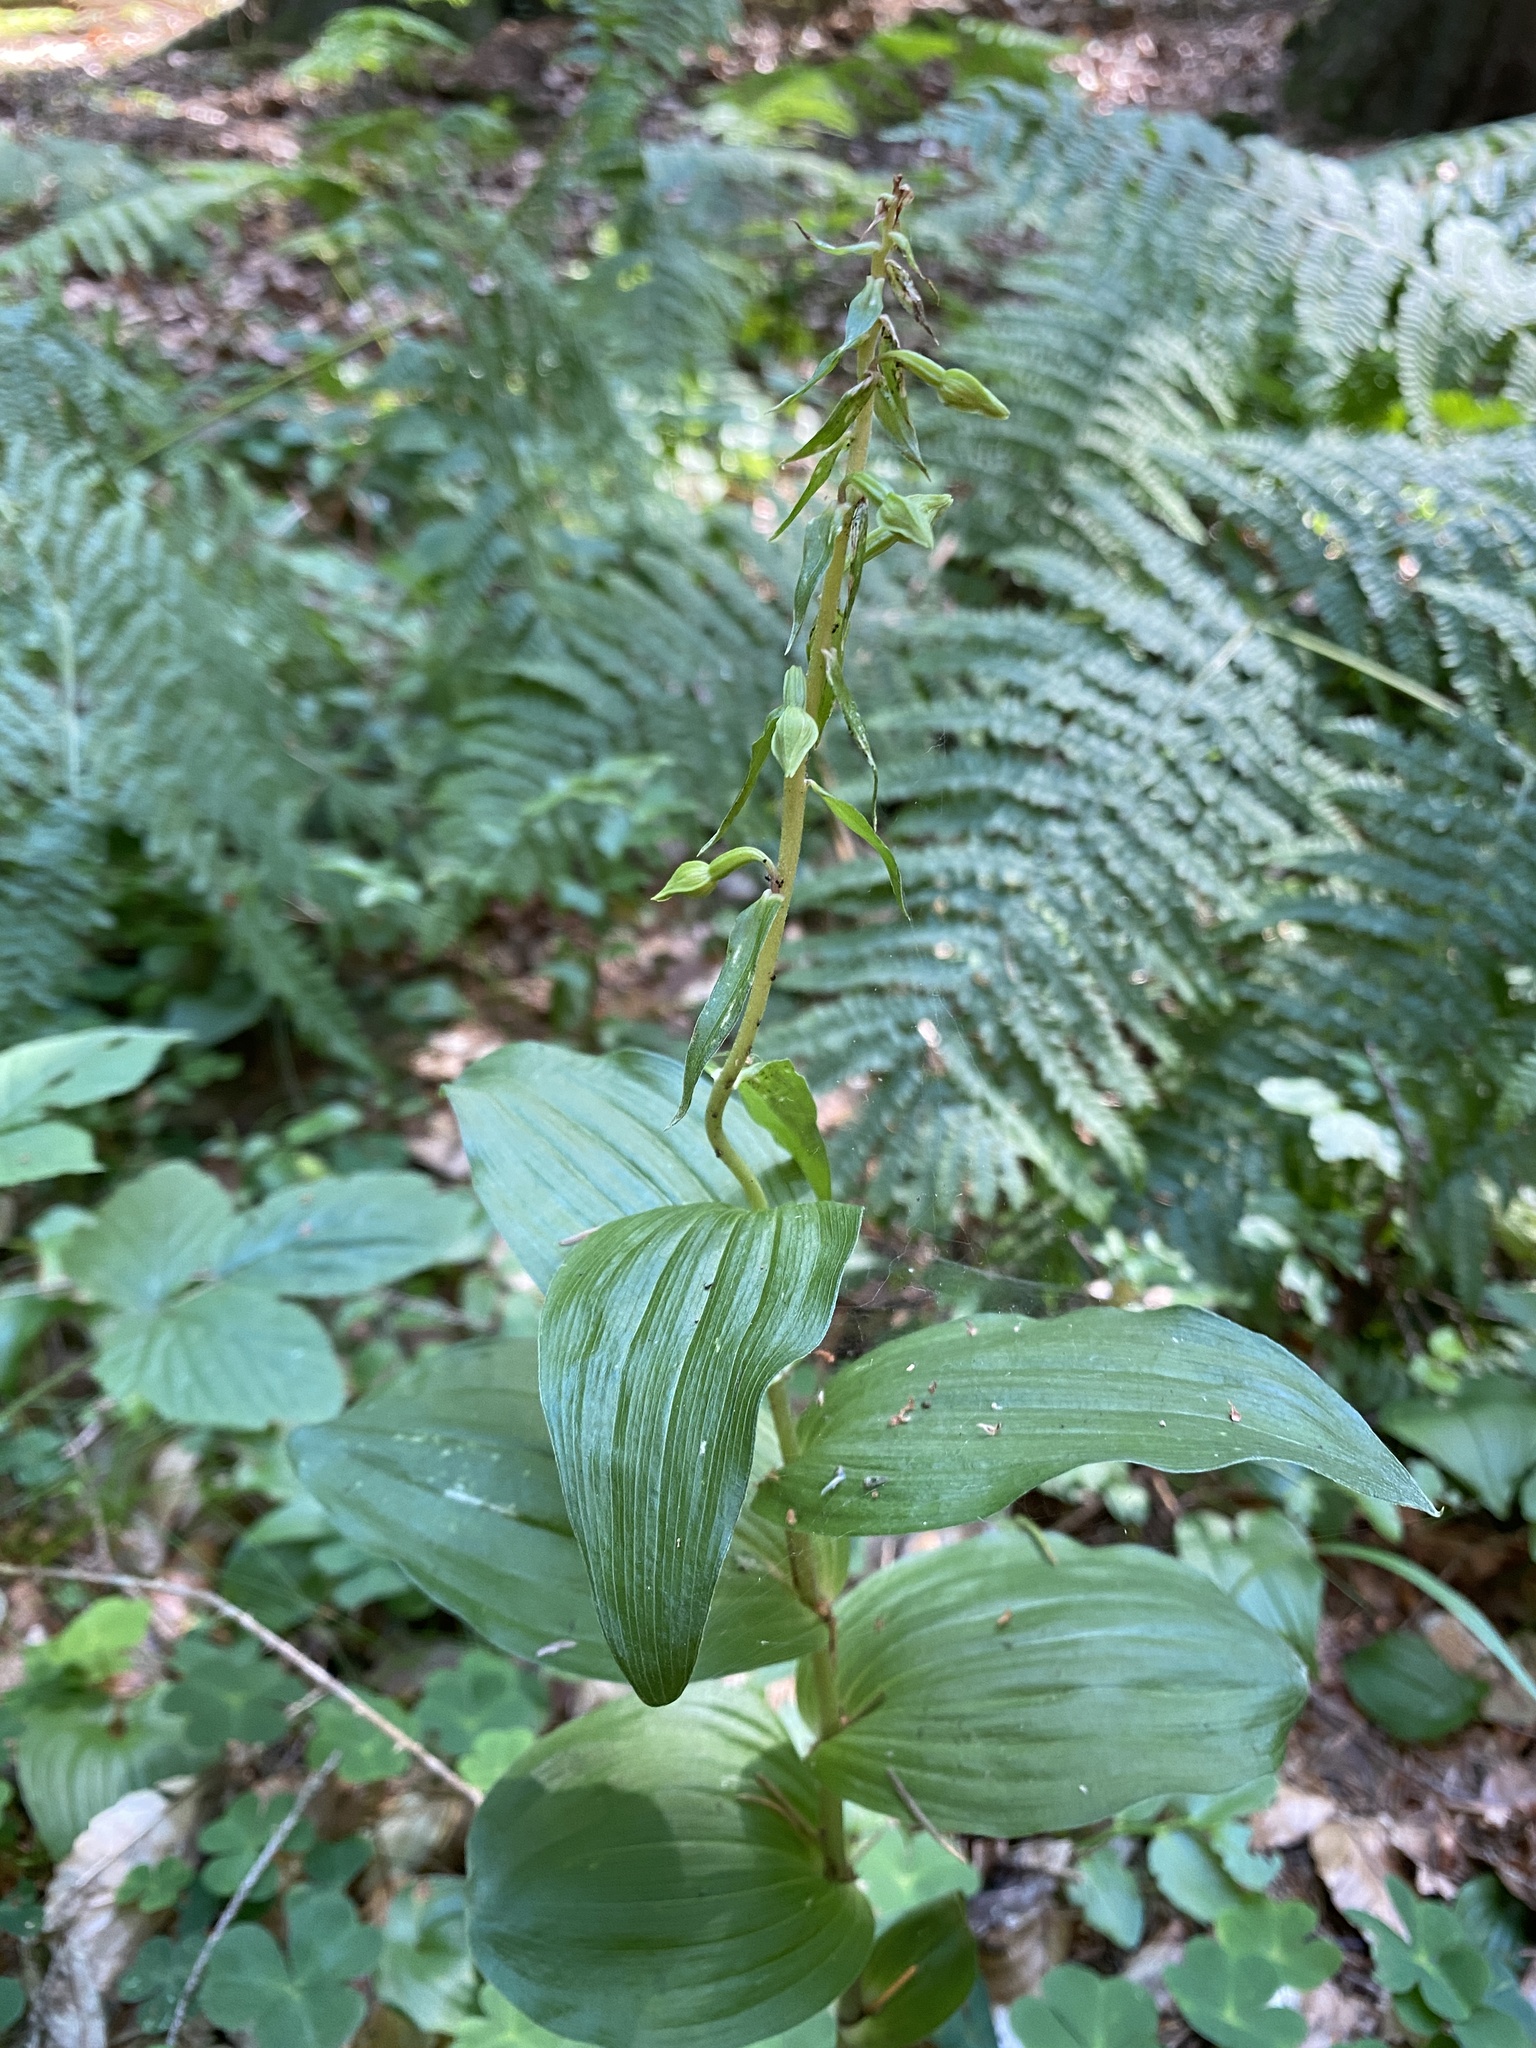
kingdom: Plantae
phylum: Tracheophyta
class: Liliopsida
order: Asparagales
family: Orchidaceae
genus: Epipactis
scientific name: Epipactis helleborine
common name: Broad-leaved helleborine
